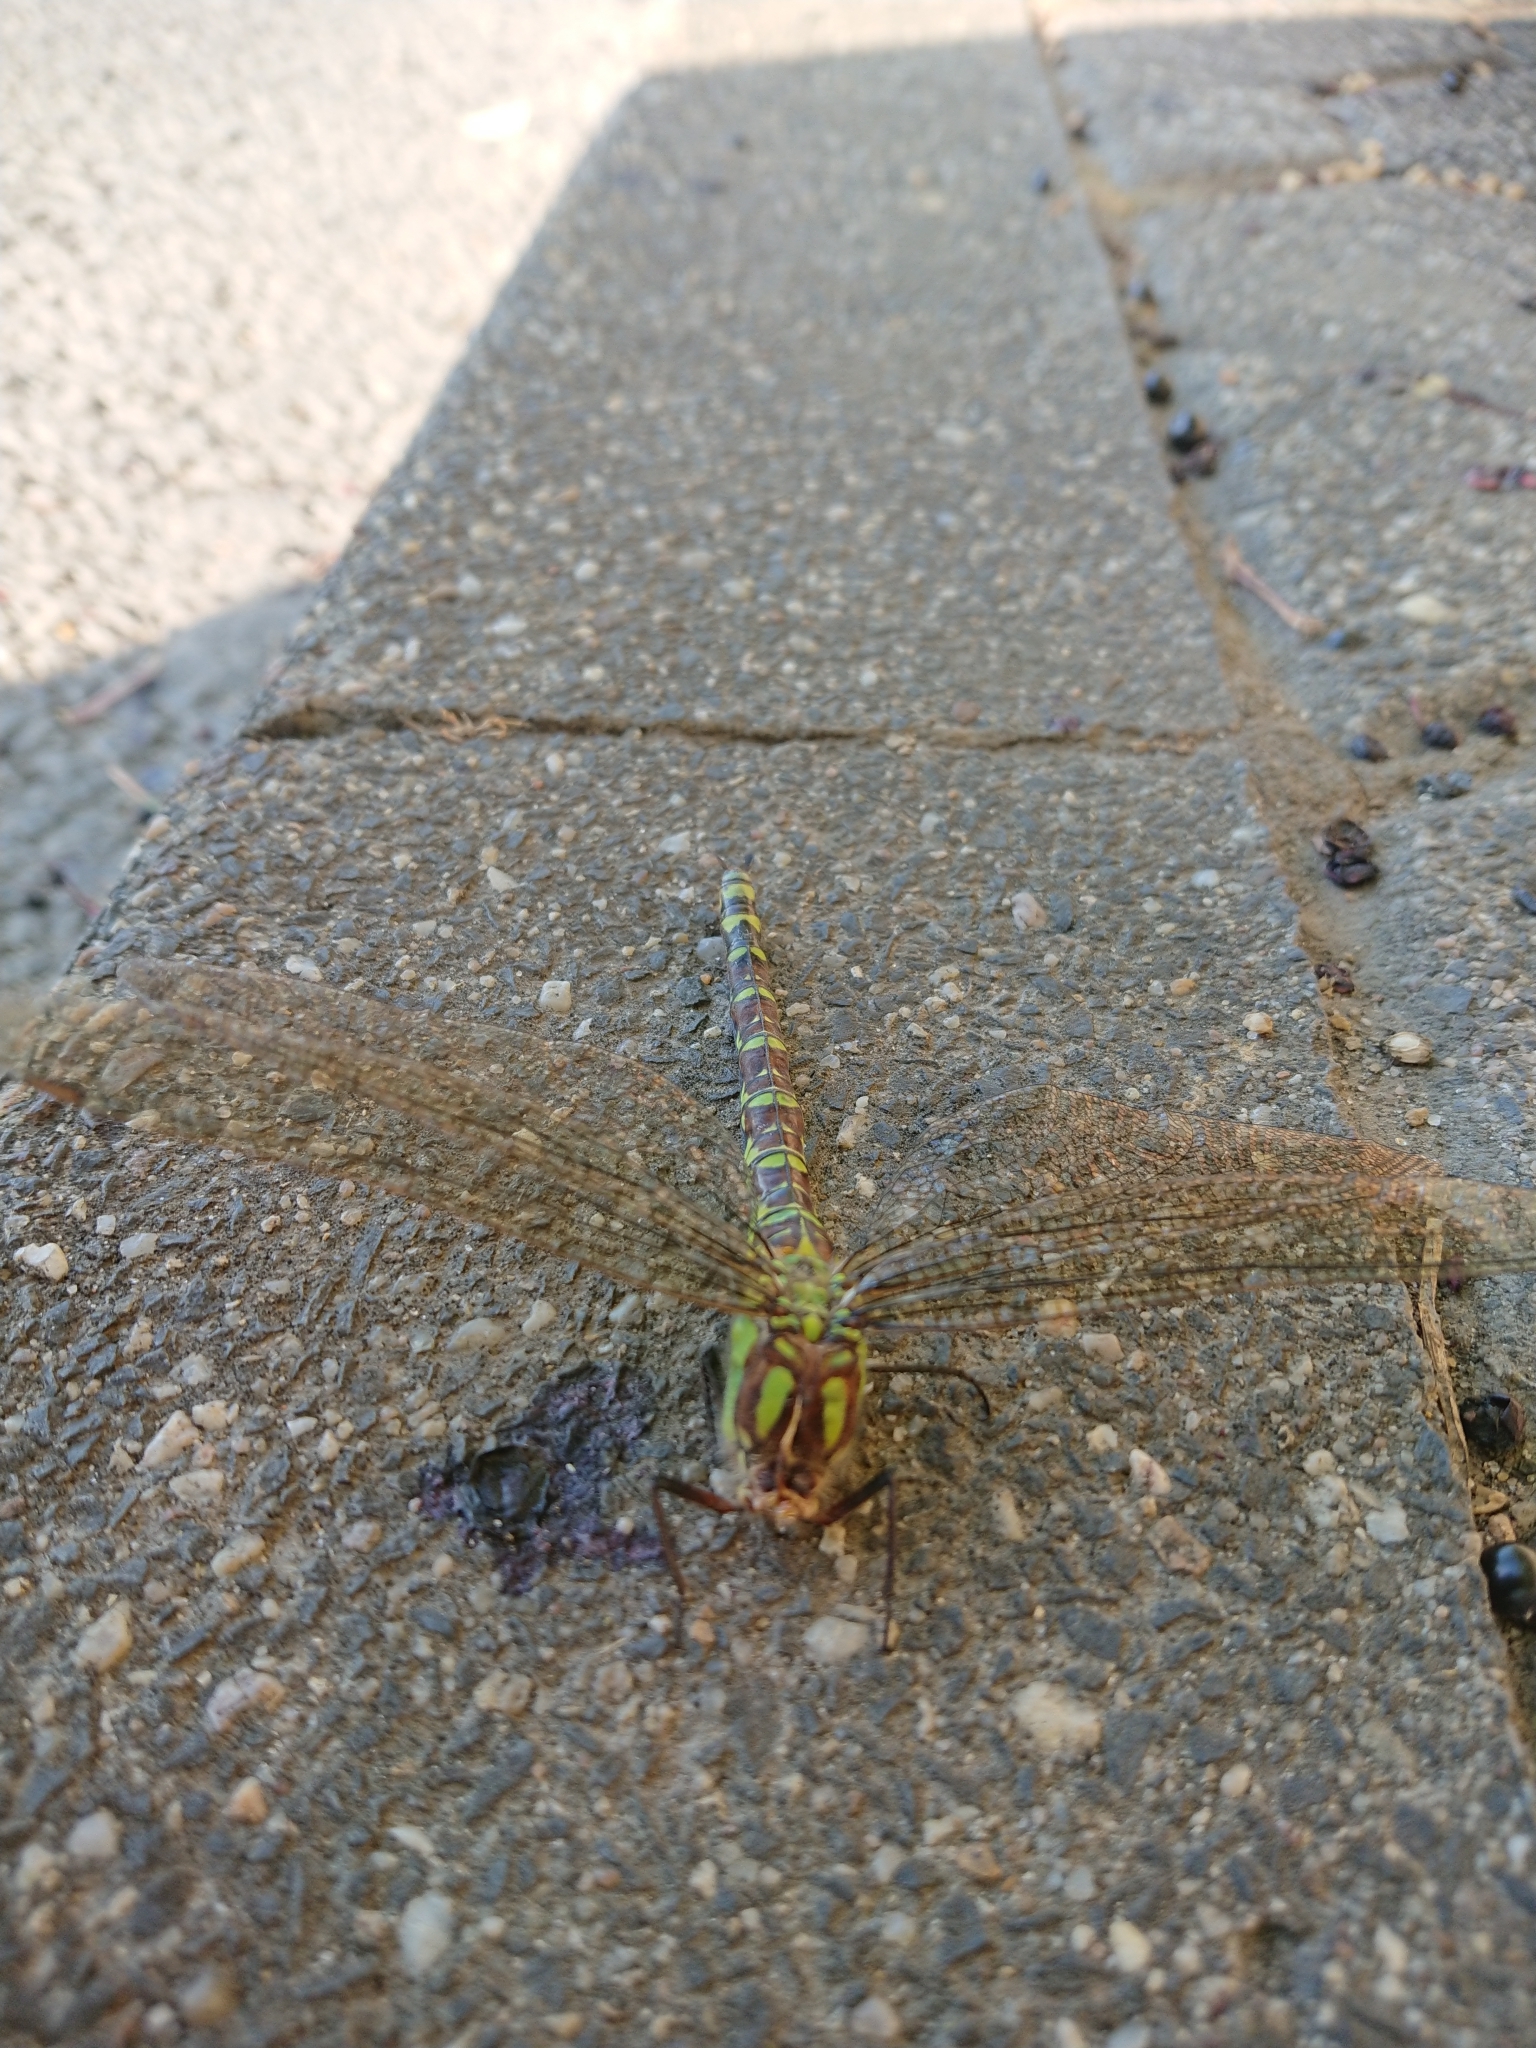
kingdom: Animalia
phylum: Arthropoda
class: Insecta
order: Odonata
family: Aeshnidae
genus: Aeshna
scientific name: Aeshna cyanea
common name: Southern hawker
